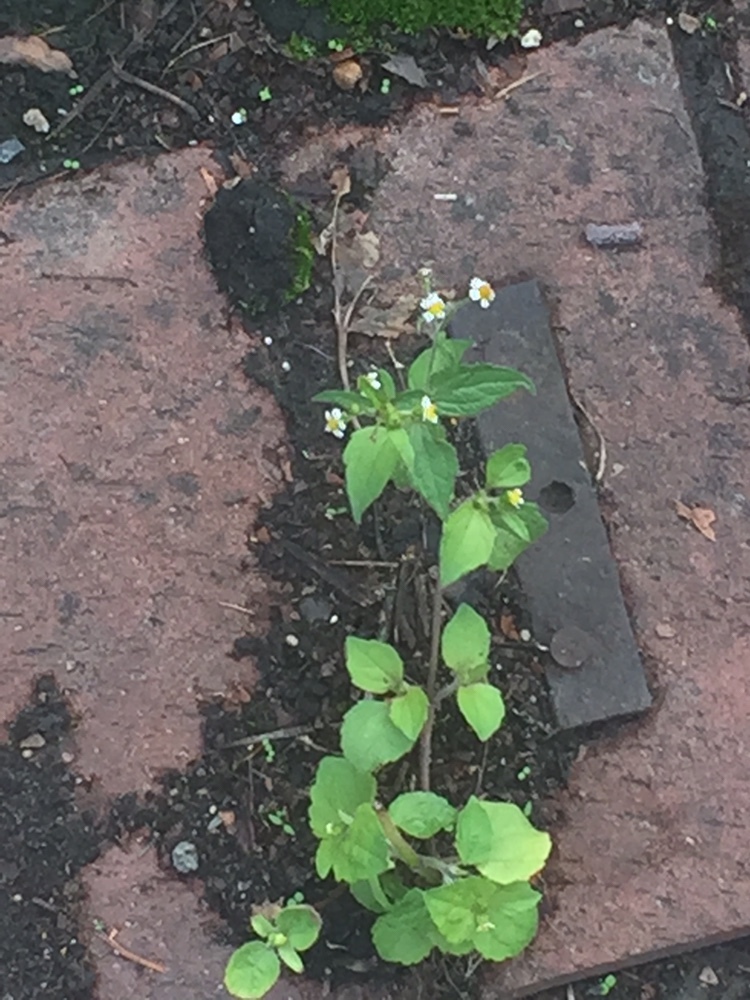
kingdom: Plantae
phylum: Tracheophyta
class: Magnoliopsida
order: Asterales
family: Asteraceae
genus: Galinsoga
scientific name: Galinsoga quadriradiata
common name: Shaggy soldier
